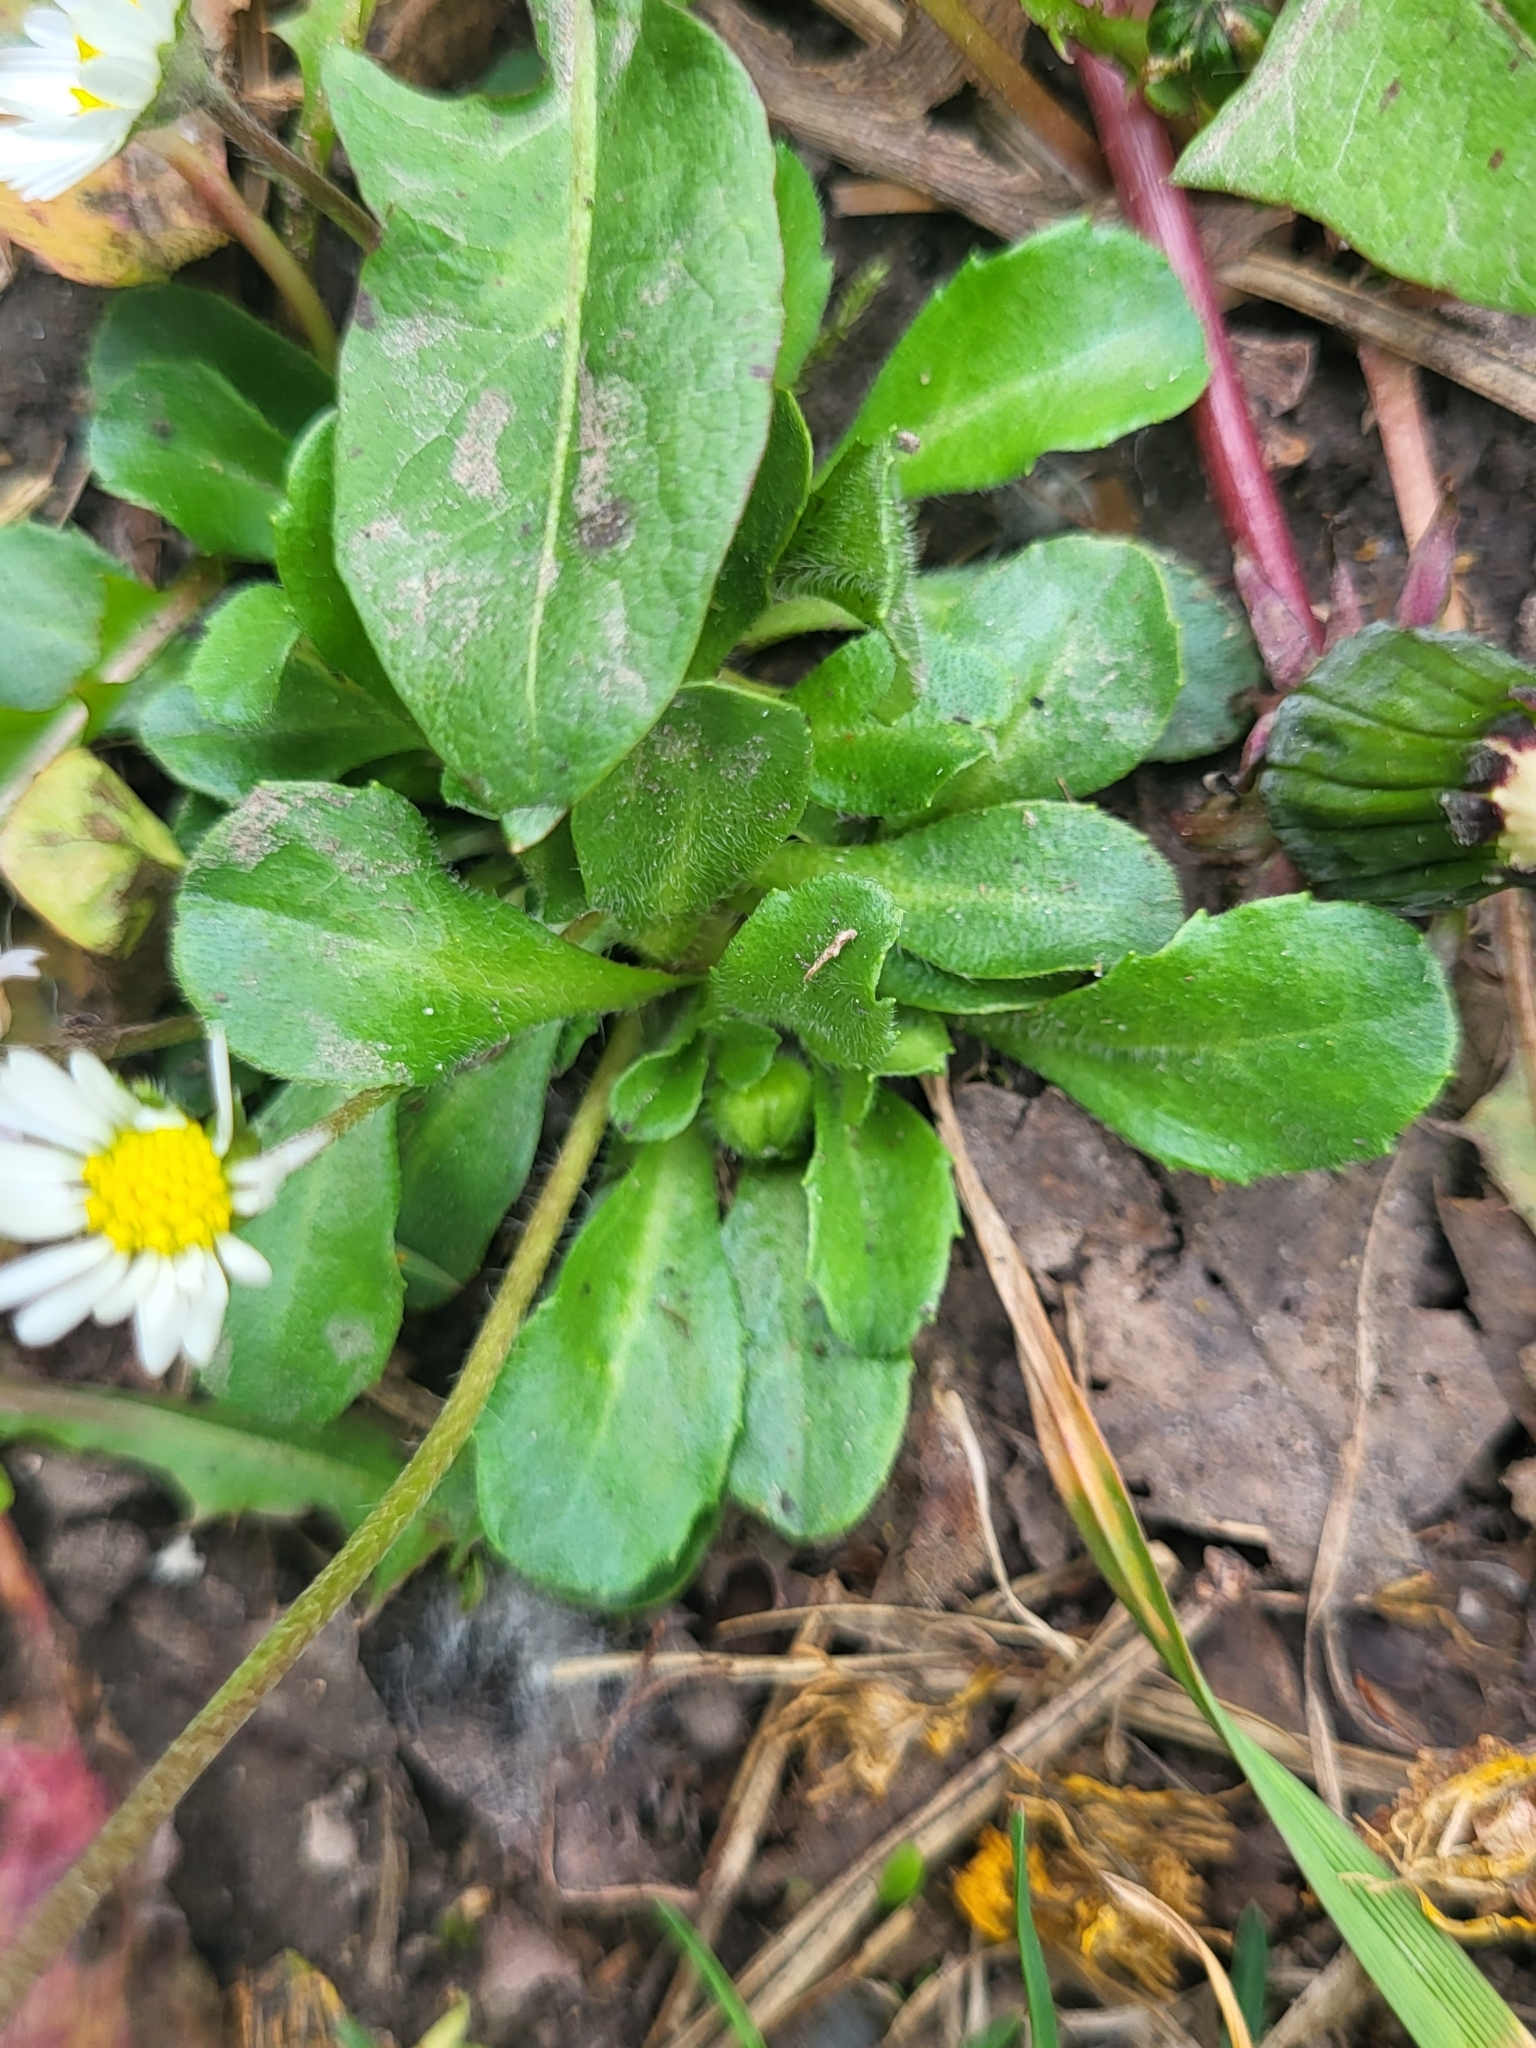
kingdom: Plantae
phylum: Tracheophyta
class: Magnoliopsida
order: Asterales
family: Asteraceae
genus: Bellis
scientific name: Bellis perennis
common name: Lawndaisy
